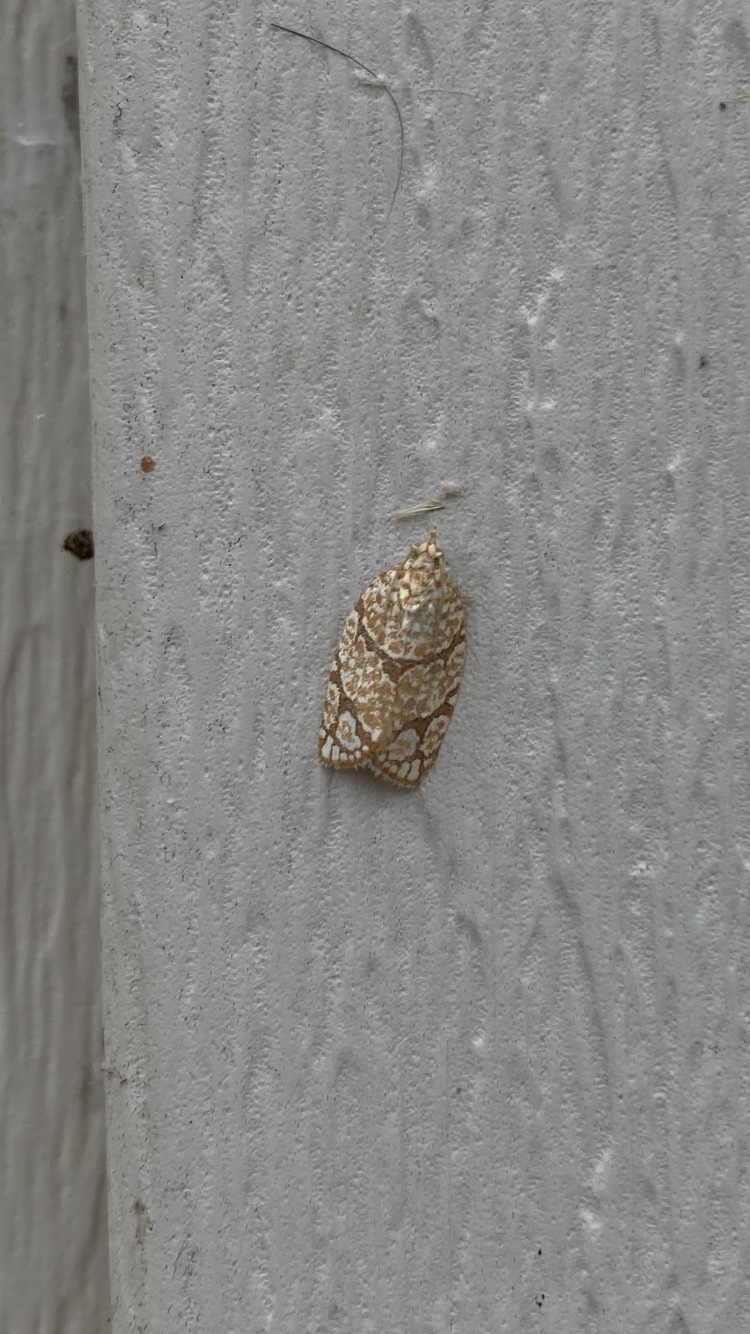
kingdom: Animalia
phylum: Arthropoda
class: Insecta
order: Lepidoptera
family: Tortricidae
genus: Argyrotaenia
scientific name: Argyrotaenia quercifoliana
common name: Yellow-winged oak leafroller moth
